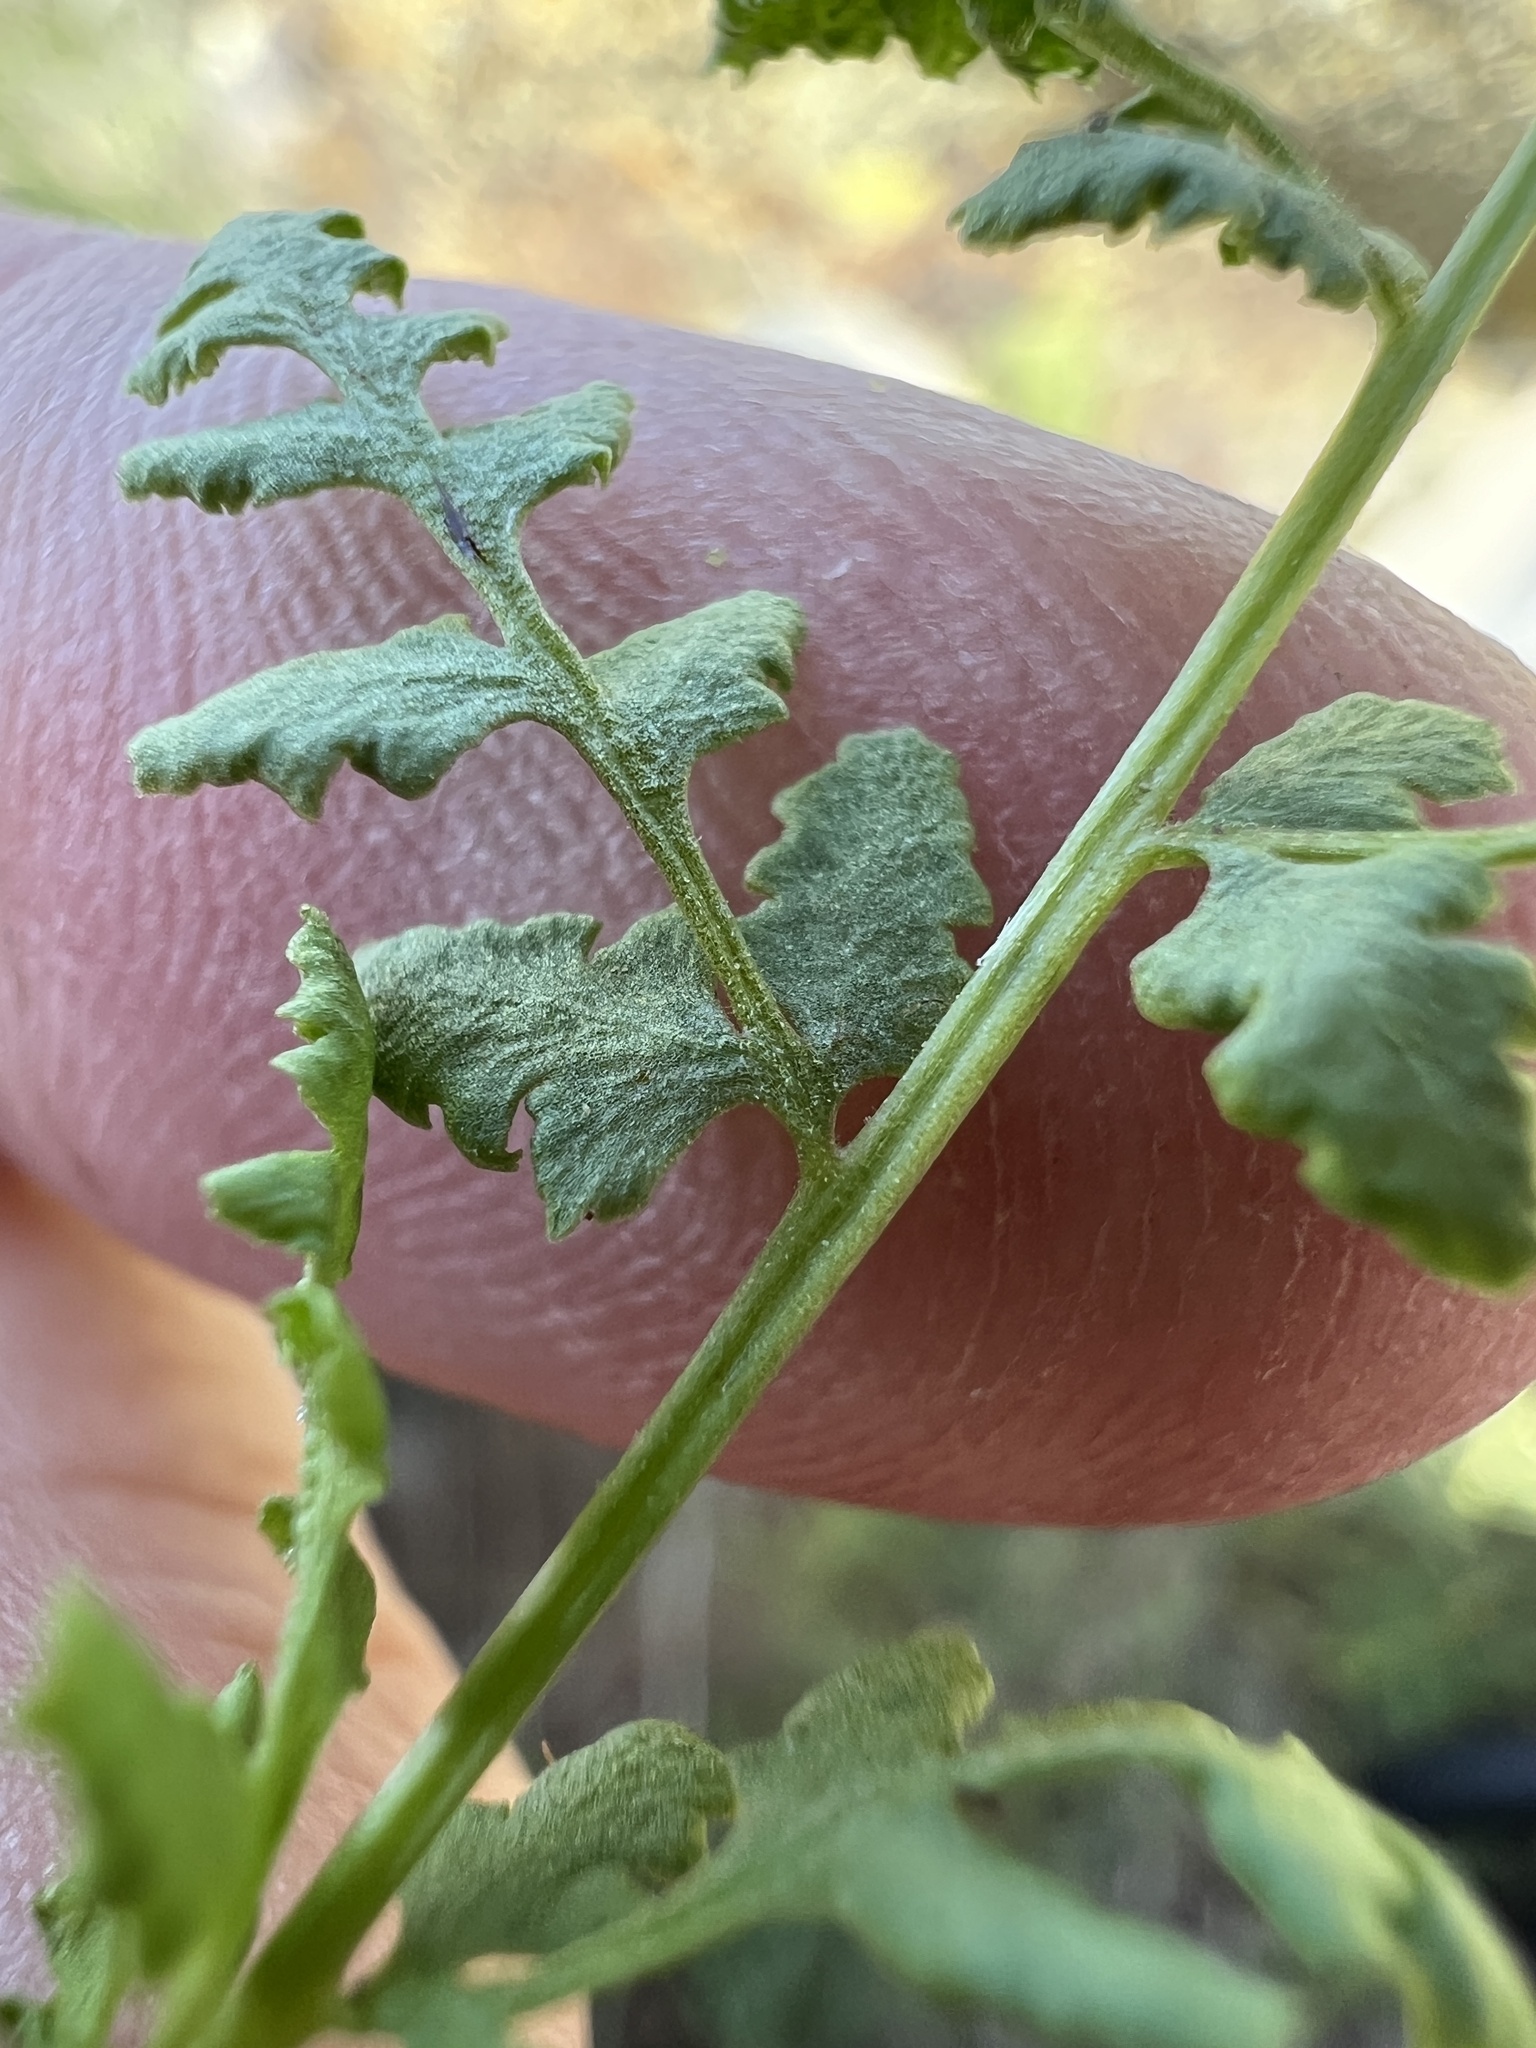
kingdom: Plantae
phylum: Tracheophyta
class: Polypodiopsida
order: Polypodiales
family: Woodsiaceae
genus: Physematium
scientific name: Physematium oreganum
